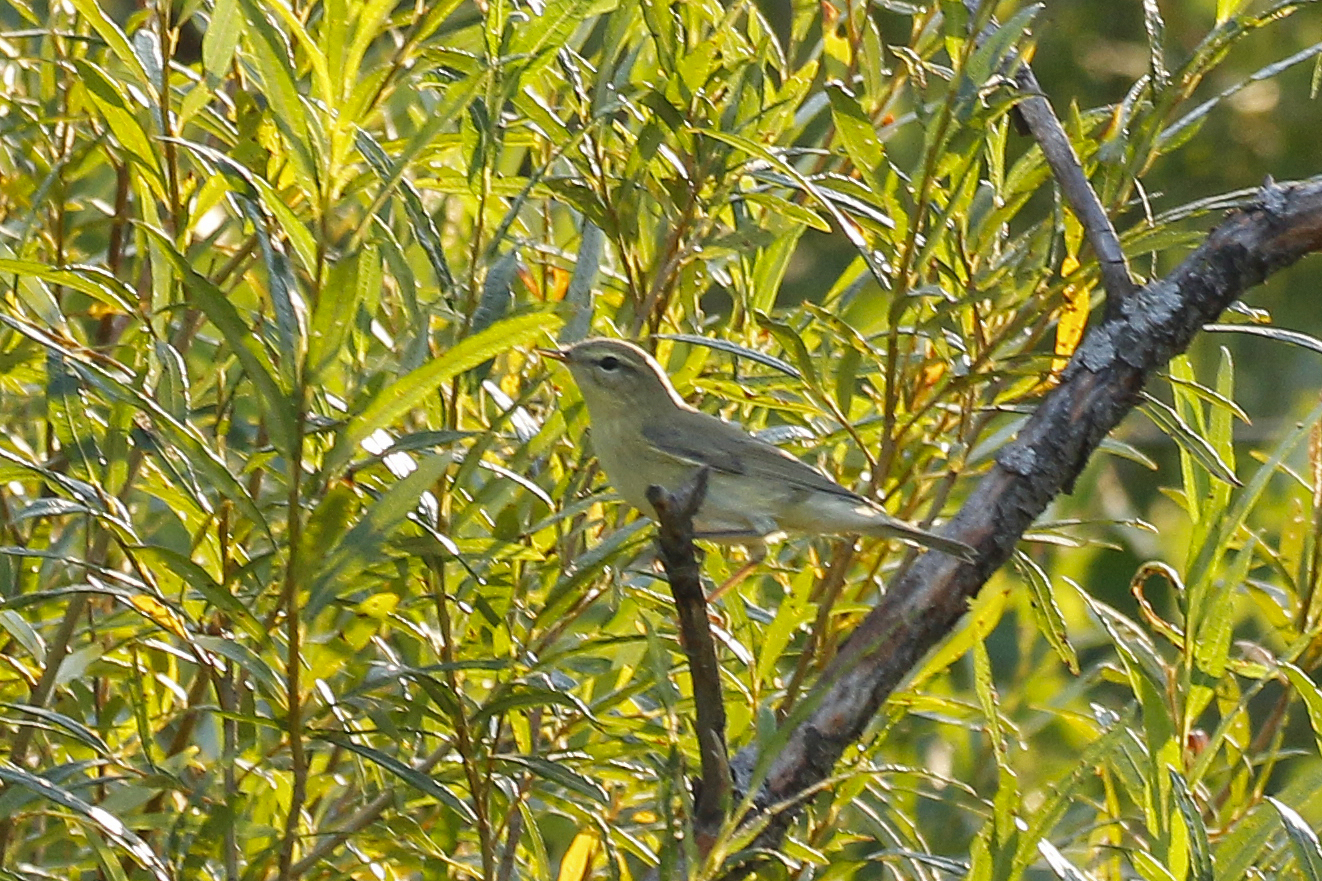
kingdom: Animalia
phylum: Chordata
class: Aves
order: Passeriformes
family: Phylloscopidae
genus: Phylloscopus
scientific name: Phylloscopus trochilus
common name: Willow warbler
